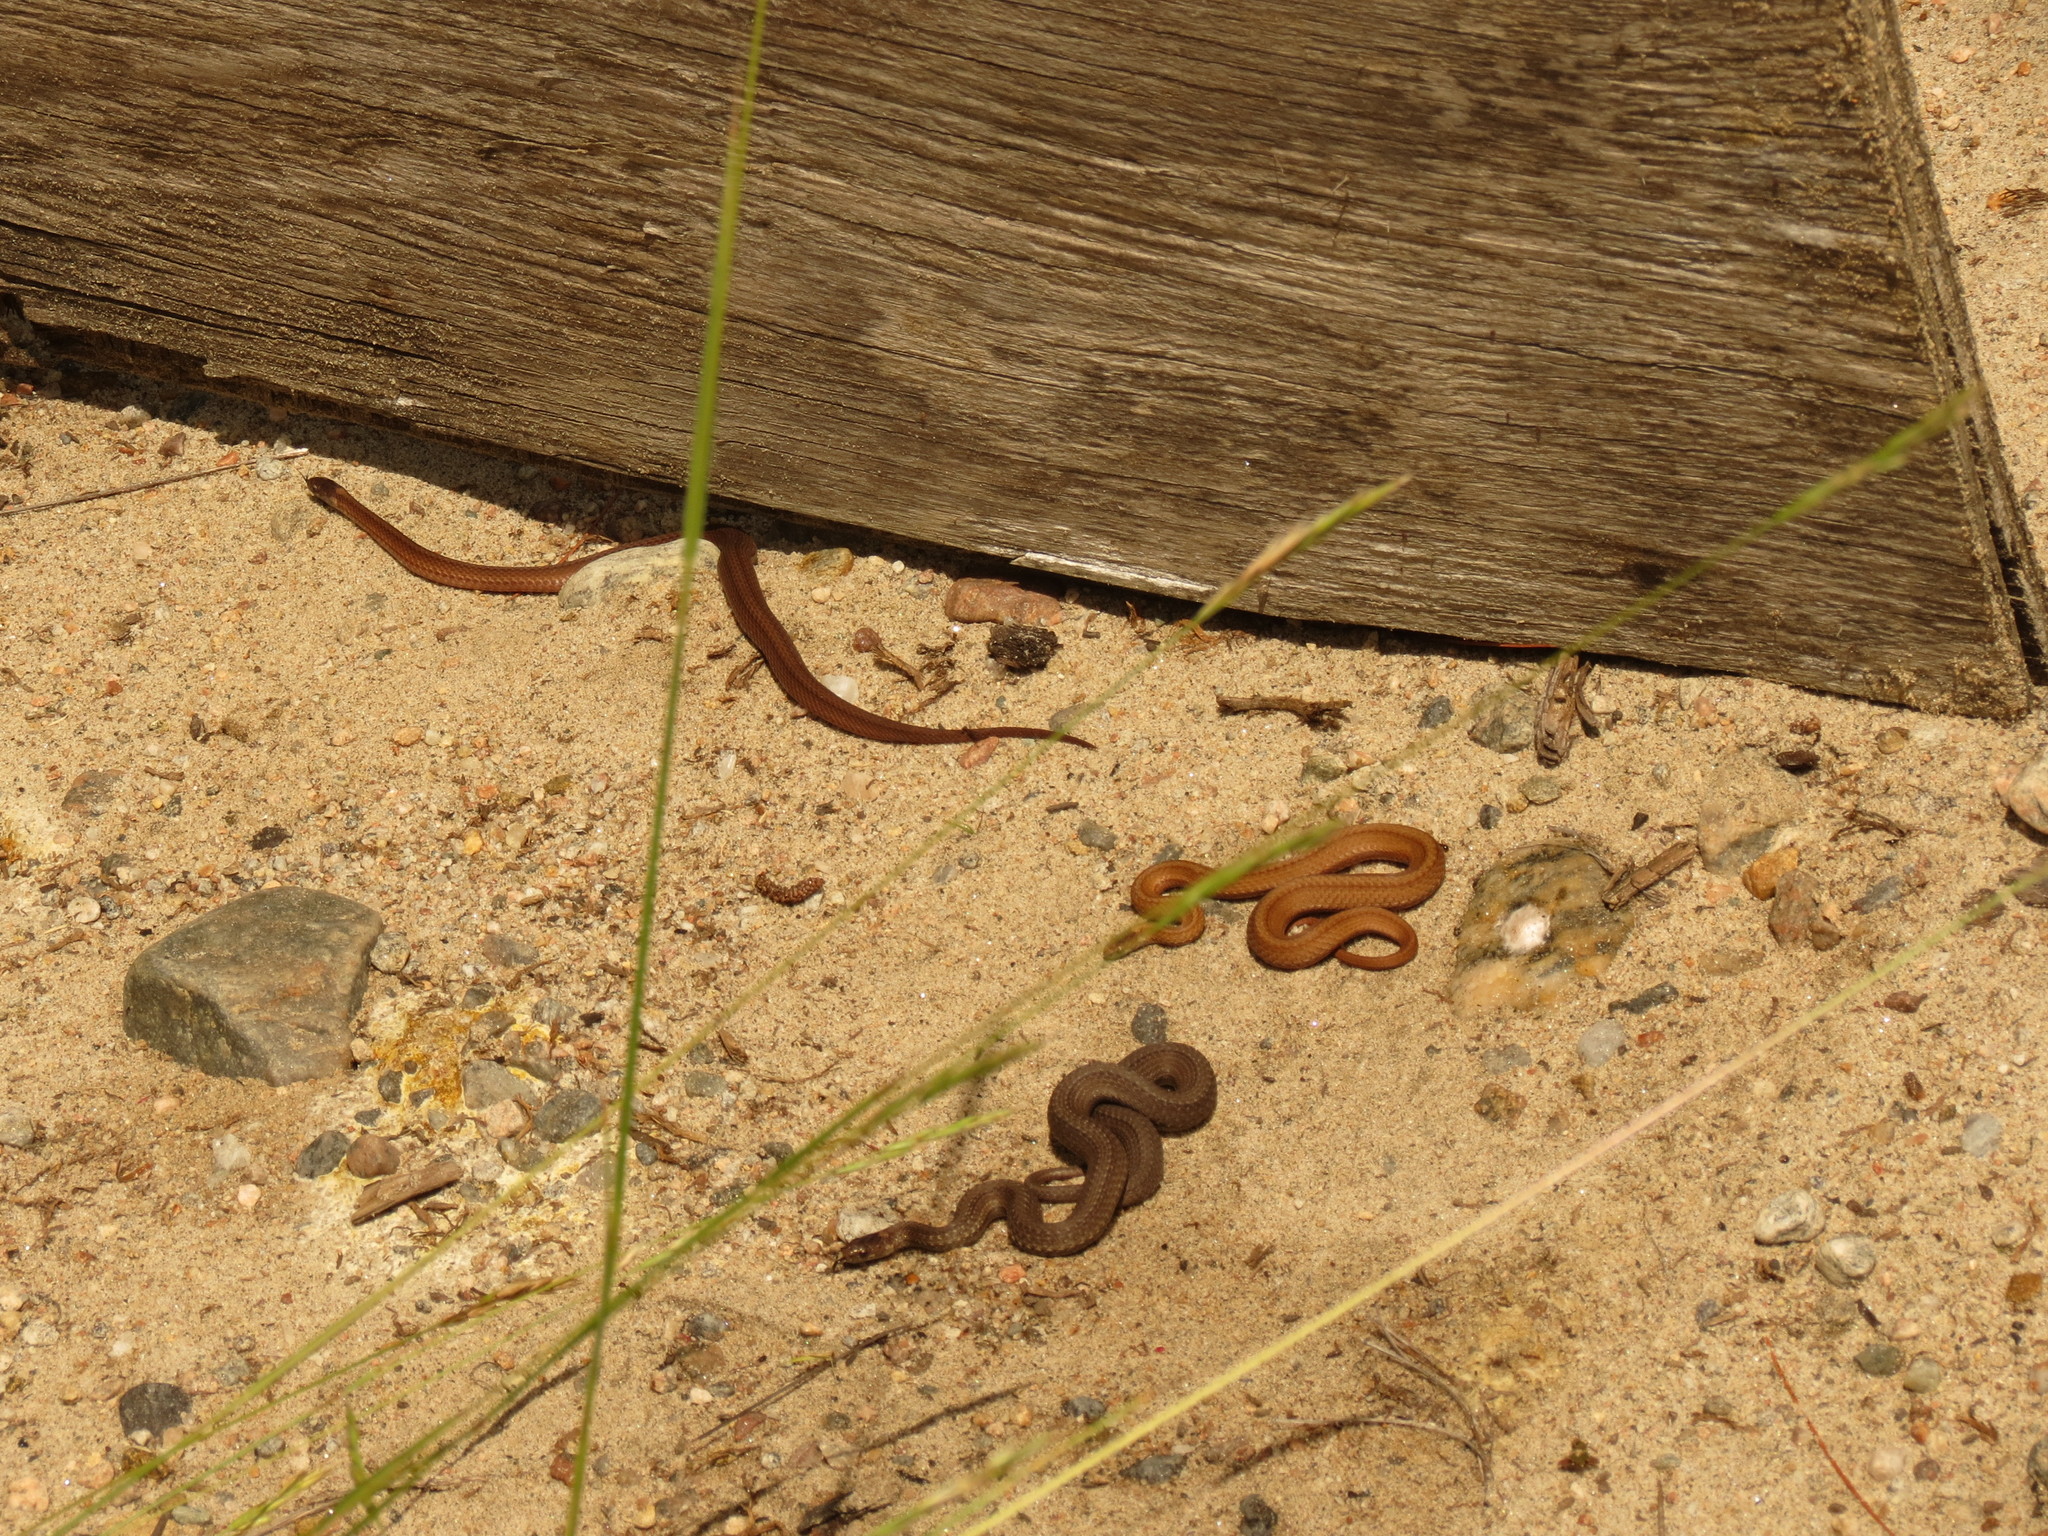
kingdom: Animalia
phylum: Chordata
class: Squamata
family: Colubridae
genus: Storeria
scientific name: Storeria occipitomaculata
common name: Redbelly snake
